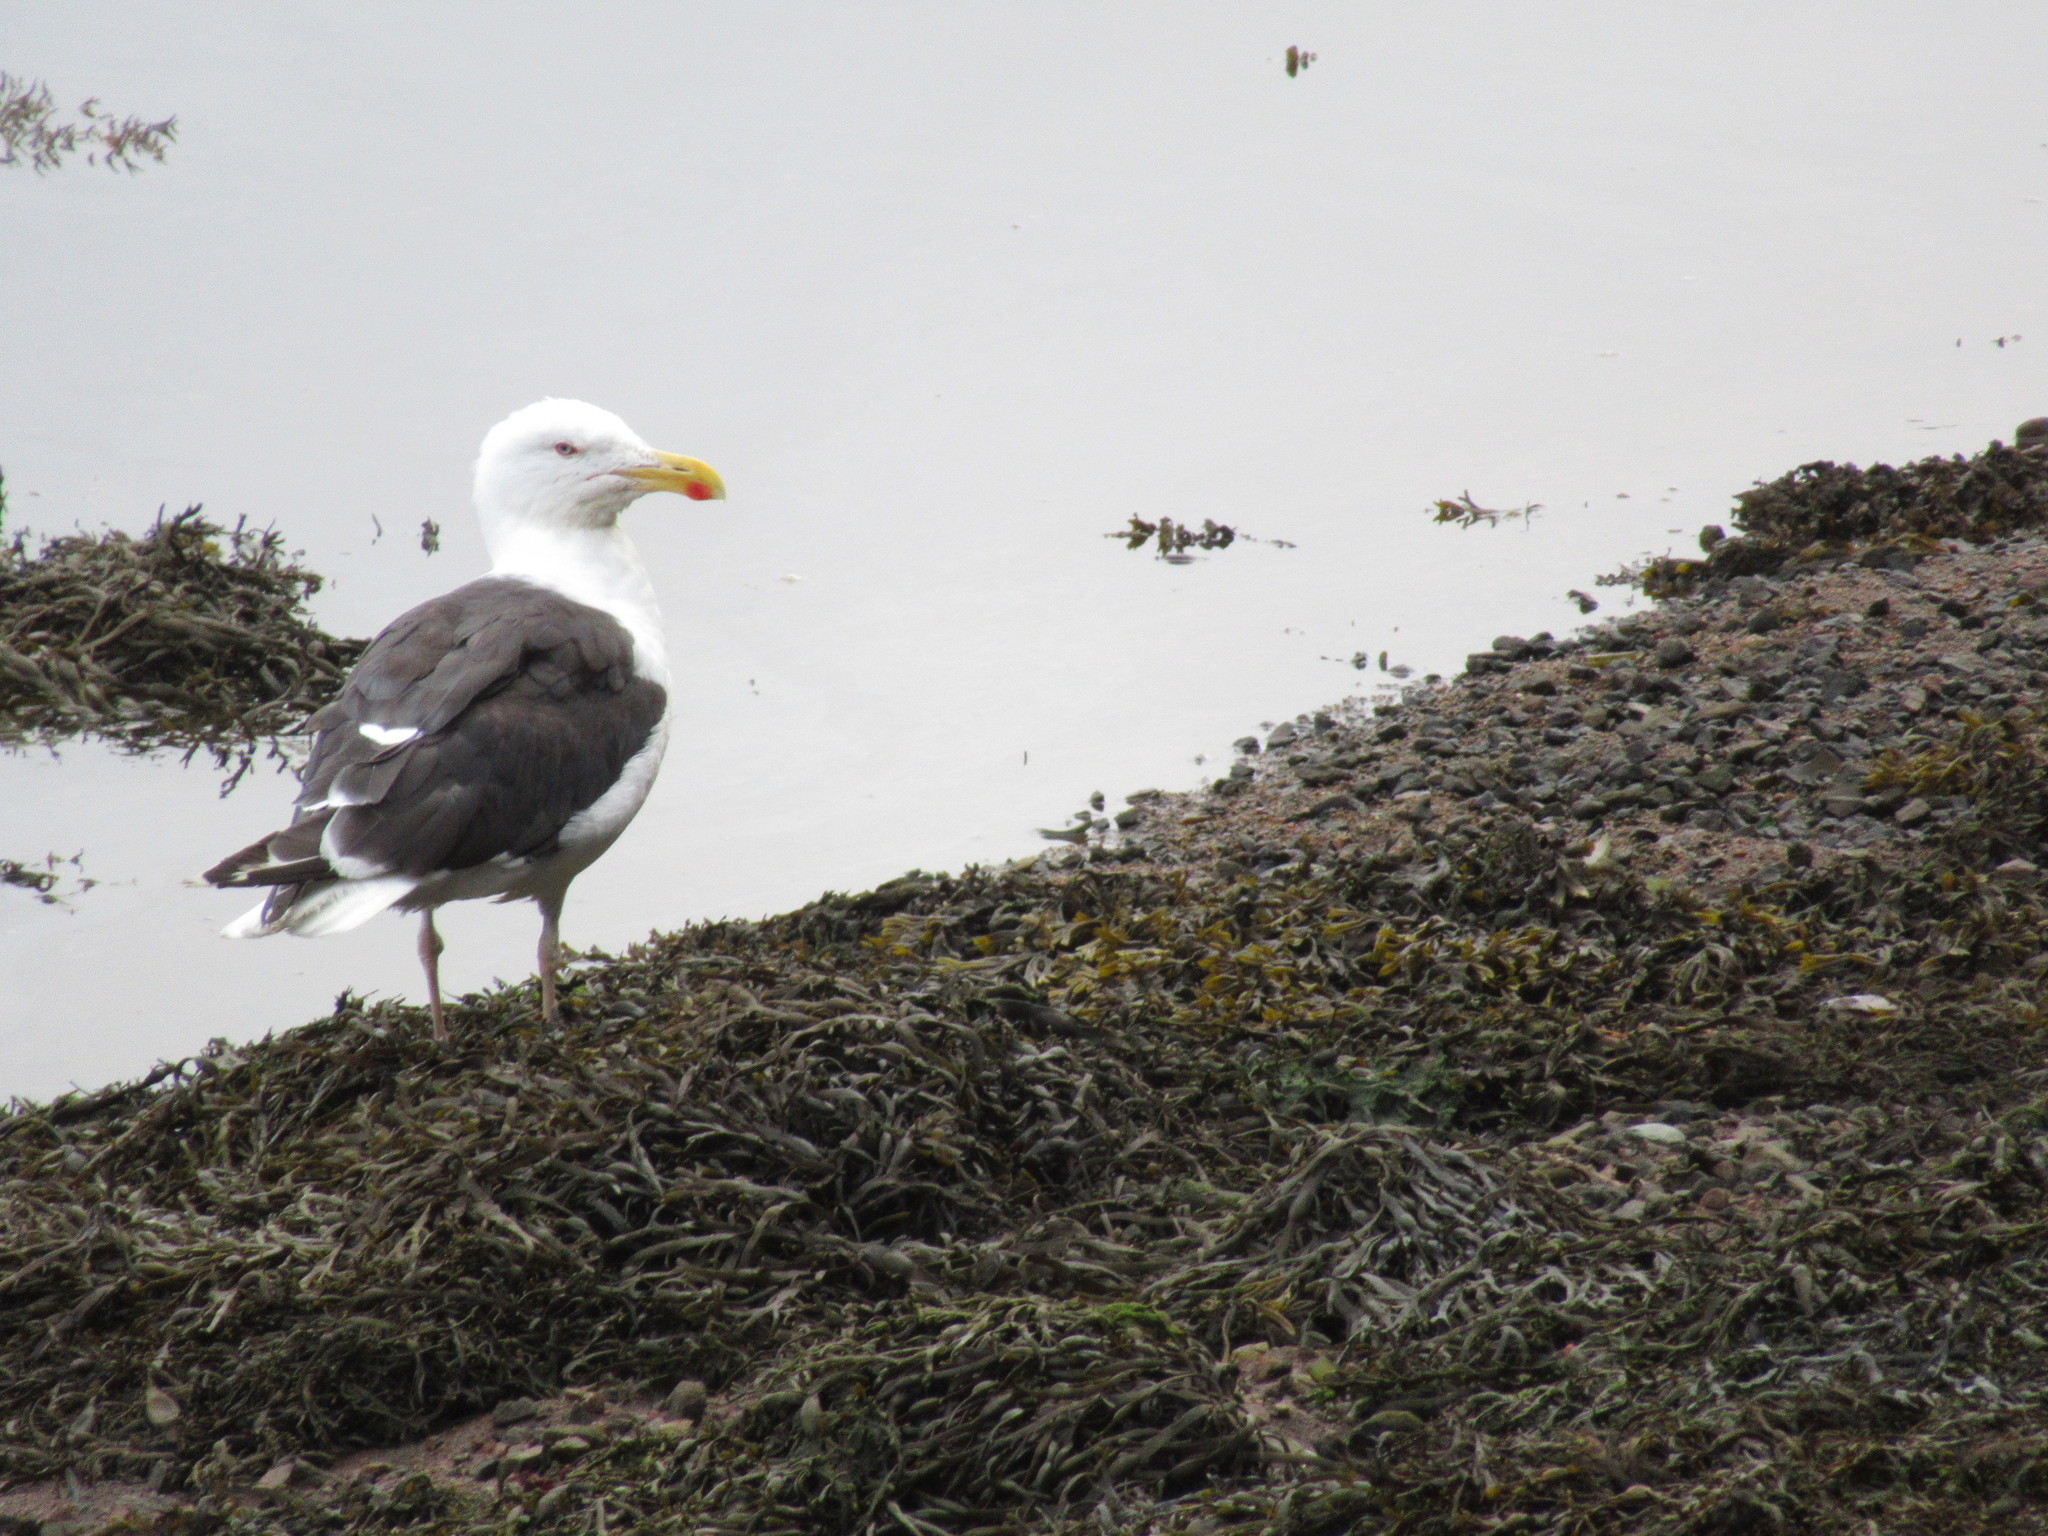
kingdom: Animalia
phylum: Chordata
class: Aves
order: Charadriiformes
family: Laridae
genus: Larus
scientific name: Larus marinus
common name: Great black-backed gull
